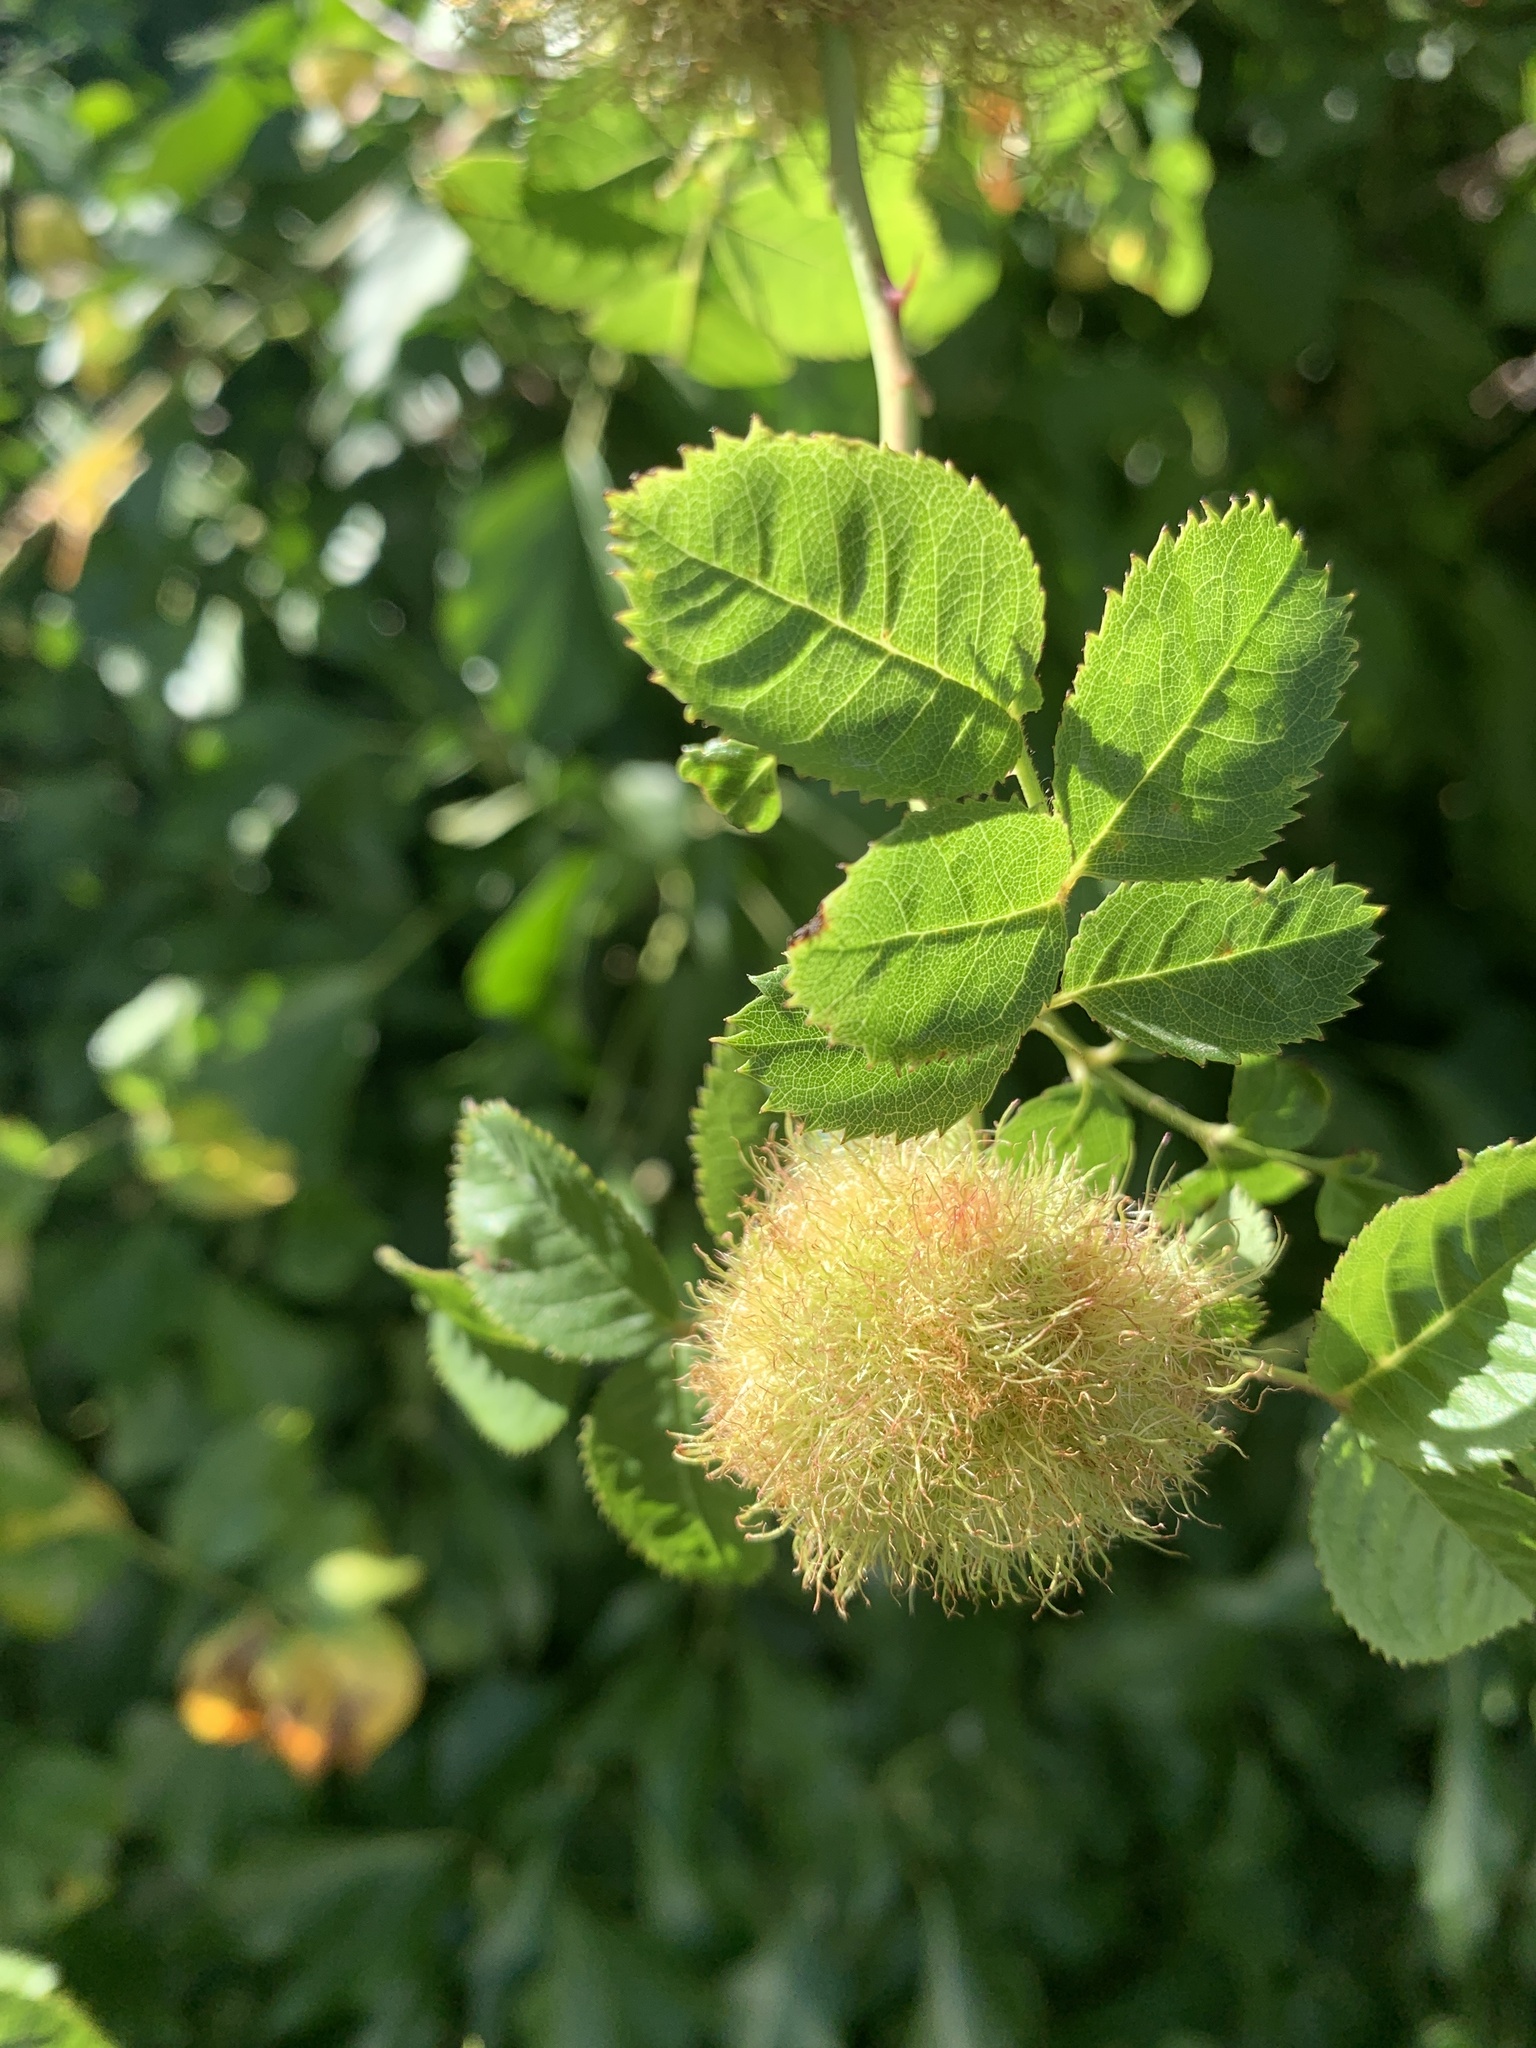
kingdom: Animalia
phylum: Arthropoda
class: Insecta
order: Hymenoptera
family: Cynipidae
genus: Diplolepis
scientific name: Diplolepis rosae
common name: Bedeguar gall
